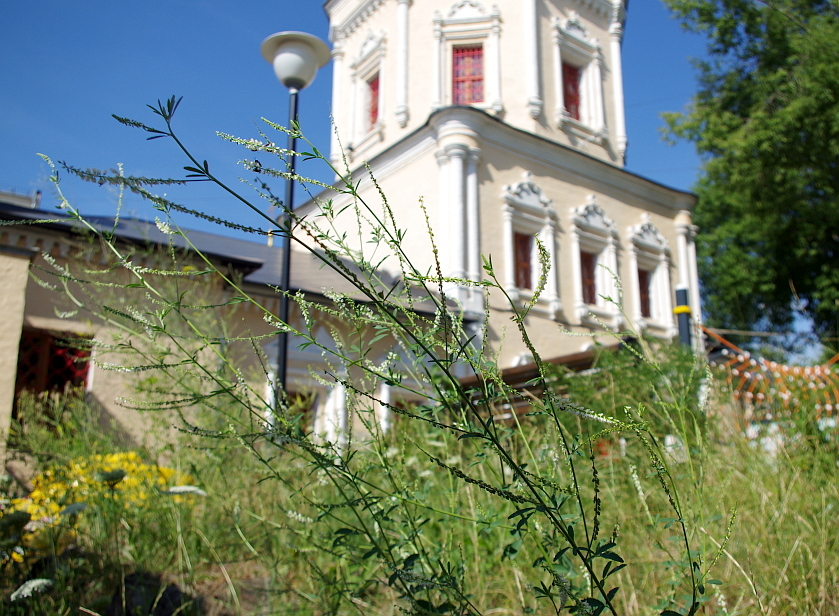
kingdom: Plantae
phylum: Tracheophyta
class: Magnoliopsida
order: Fabales
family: Fabaceae
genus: Melilotus
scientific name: Melilotus albus
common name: White melilot
